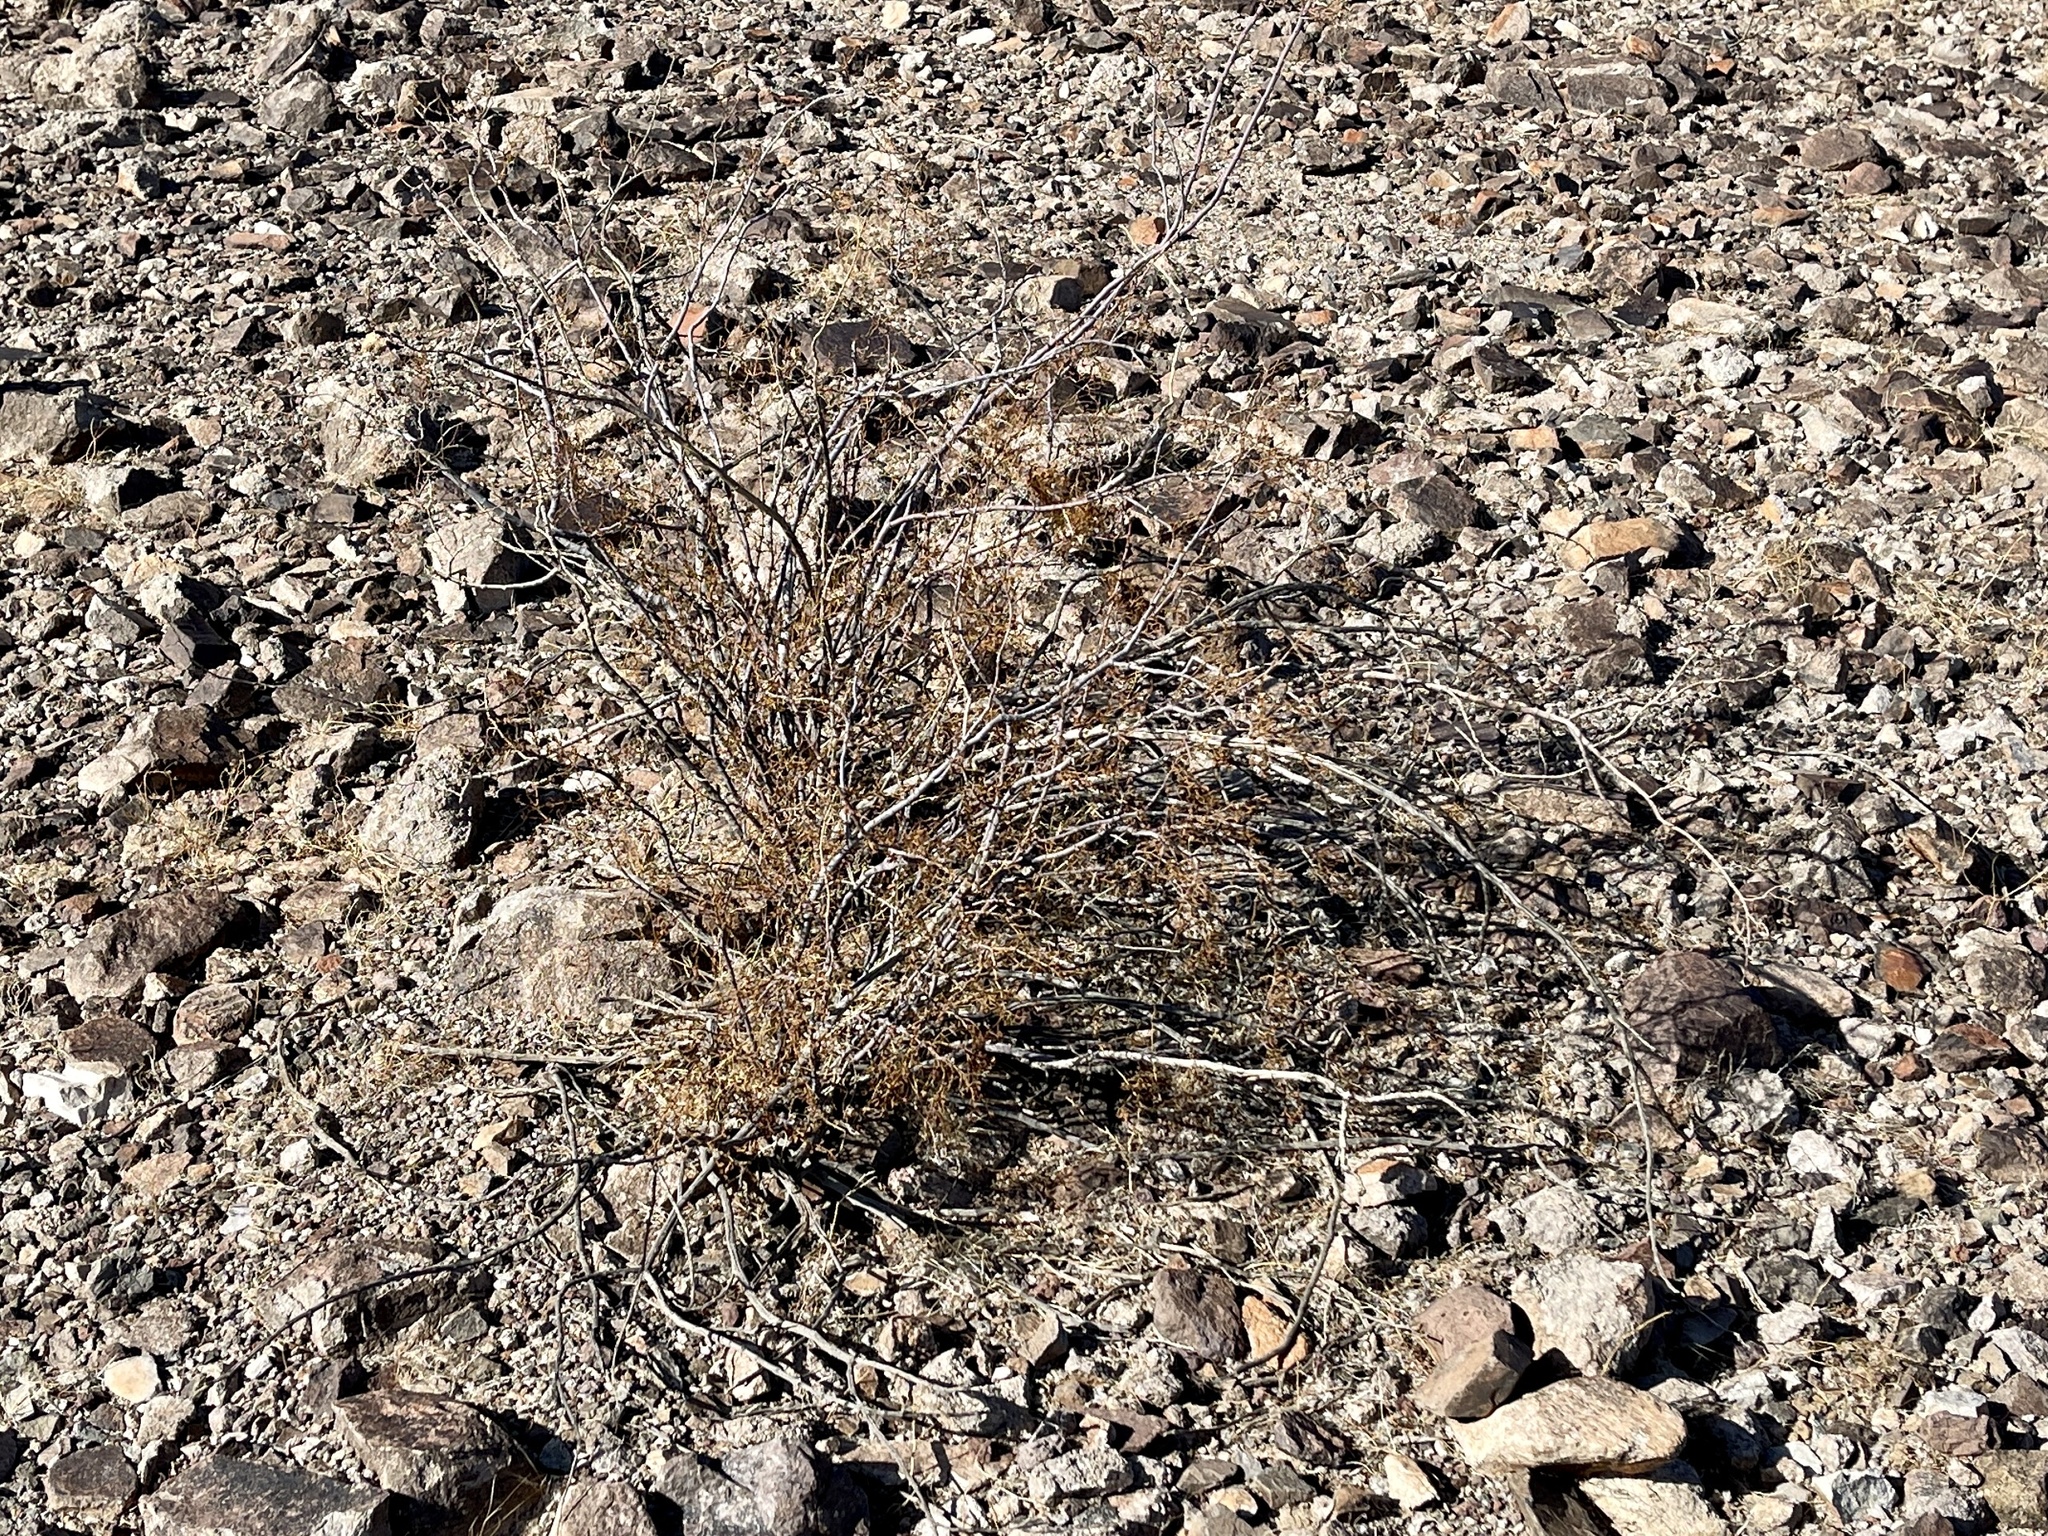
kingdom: Plantae
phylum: Tracheophyta
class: Magnoliopsida
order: Zygophyllales
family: Zygophyllaceae
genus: Larrea
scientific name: Larrea tridentata
